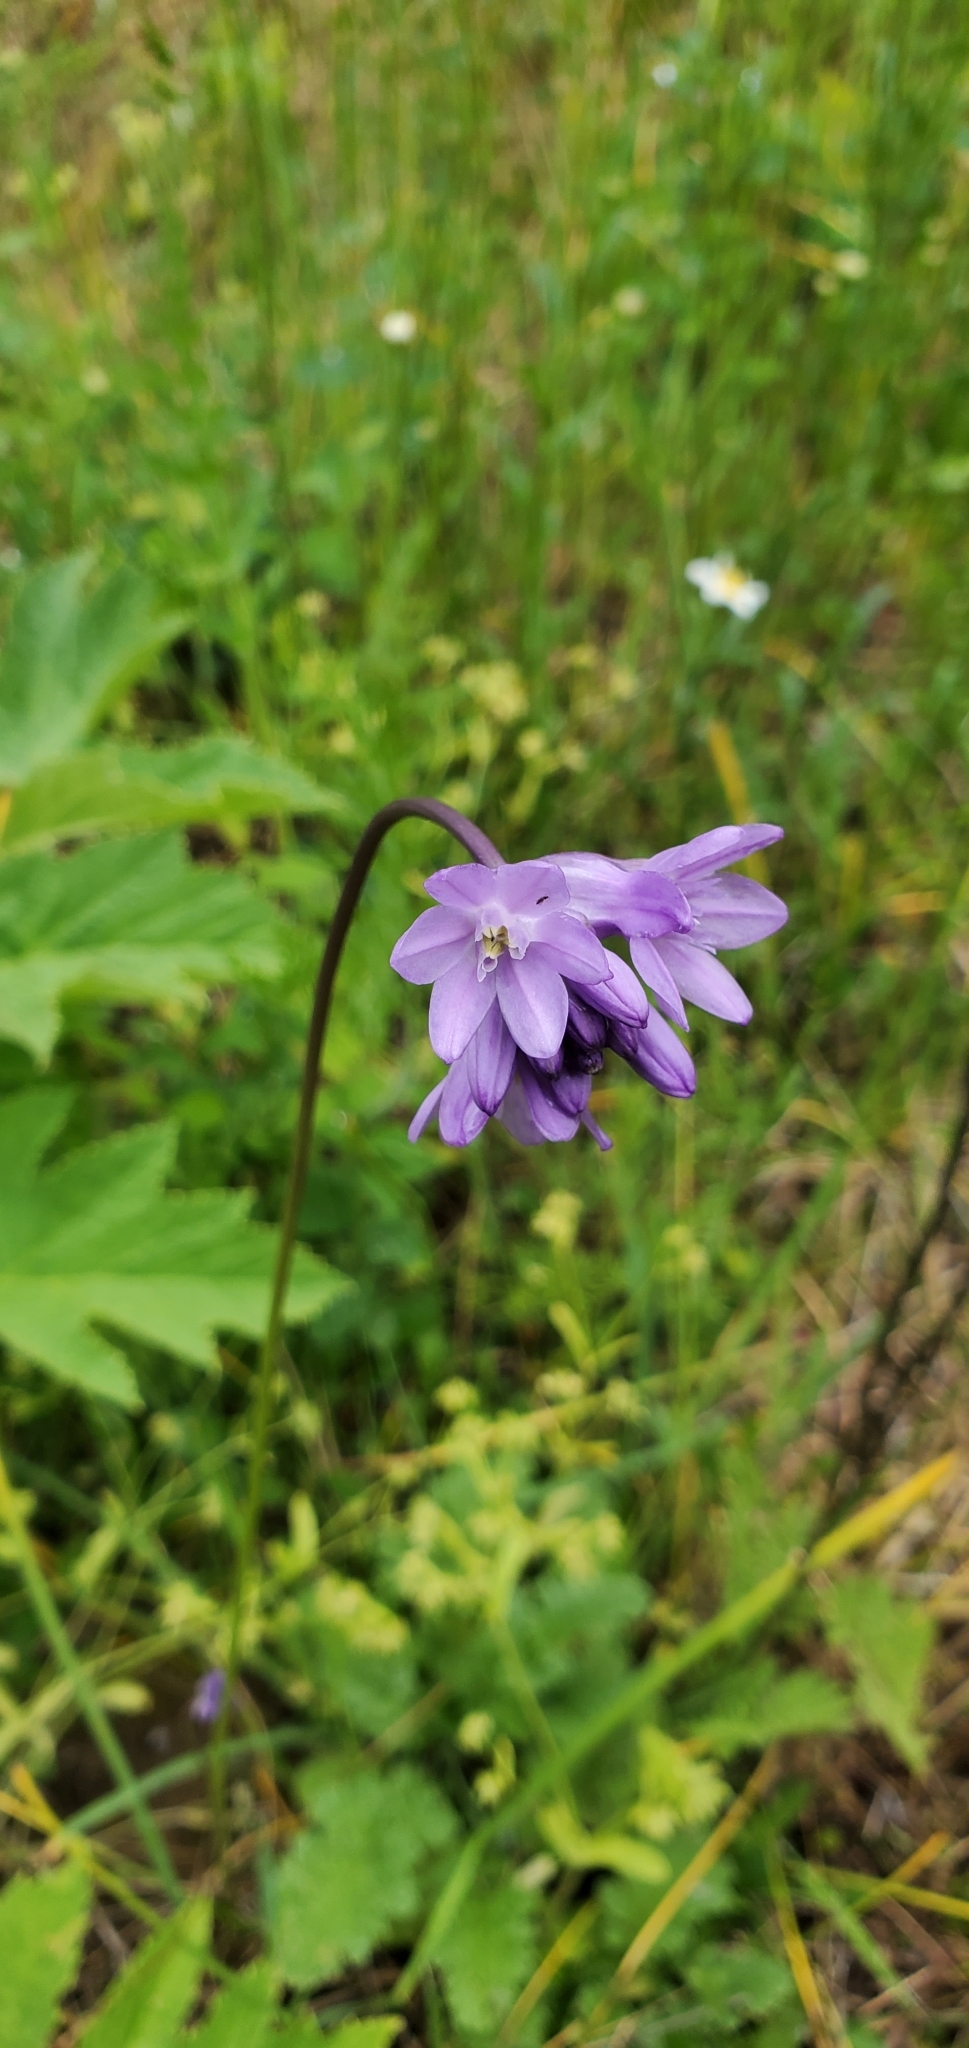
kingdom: Plantae
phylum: Tracheophyta
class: Liliopsida
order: Asparagales
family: Asparagaceae
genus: Dichelostemma
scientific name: Dichelostemma congestum
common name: Fork-tooth ookow
